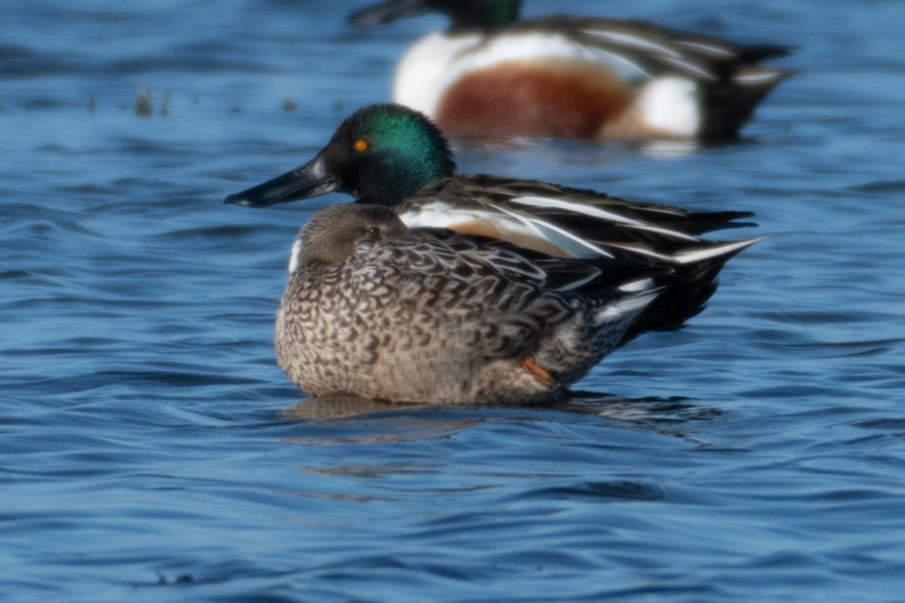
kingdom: Animalia
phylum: Chordata
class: Aves
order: Anseriformes
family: Anatidae
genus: Spatula
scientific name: Spatula clypeata
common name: Northern shoveler
